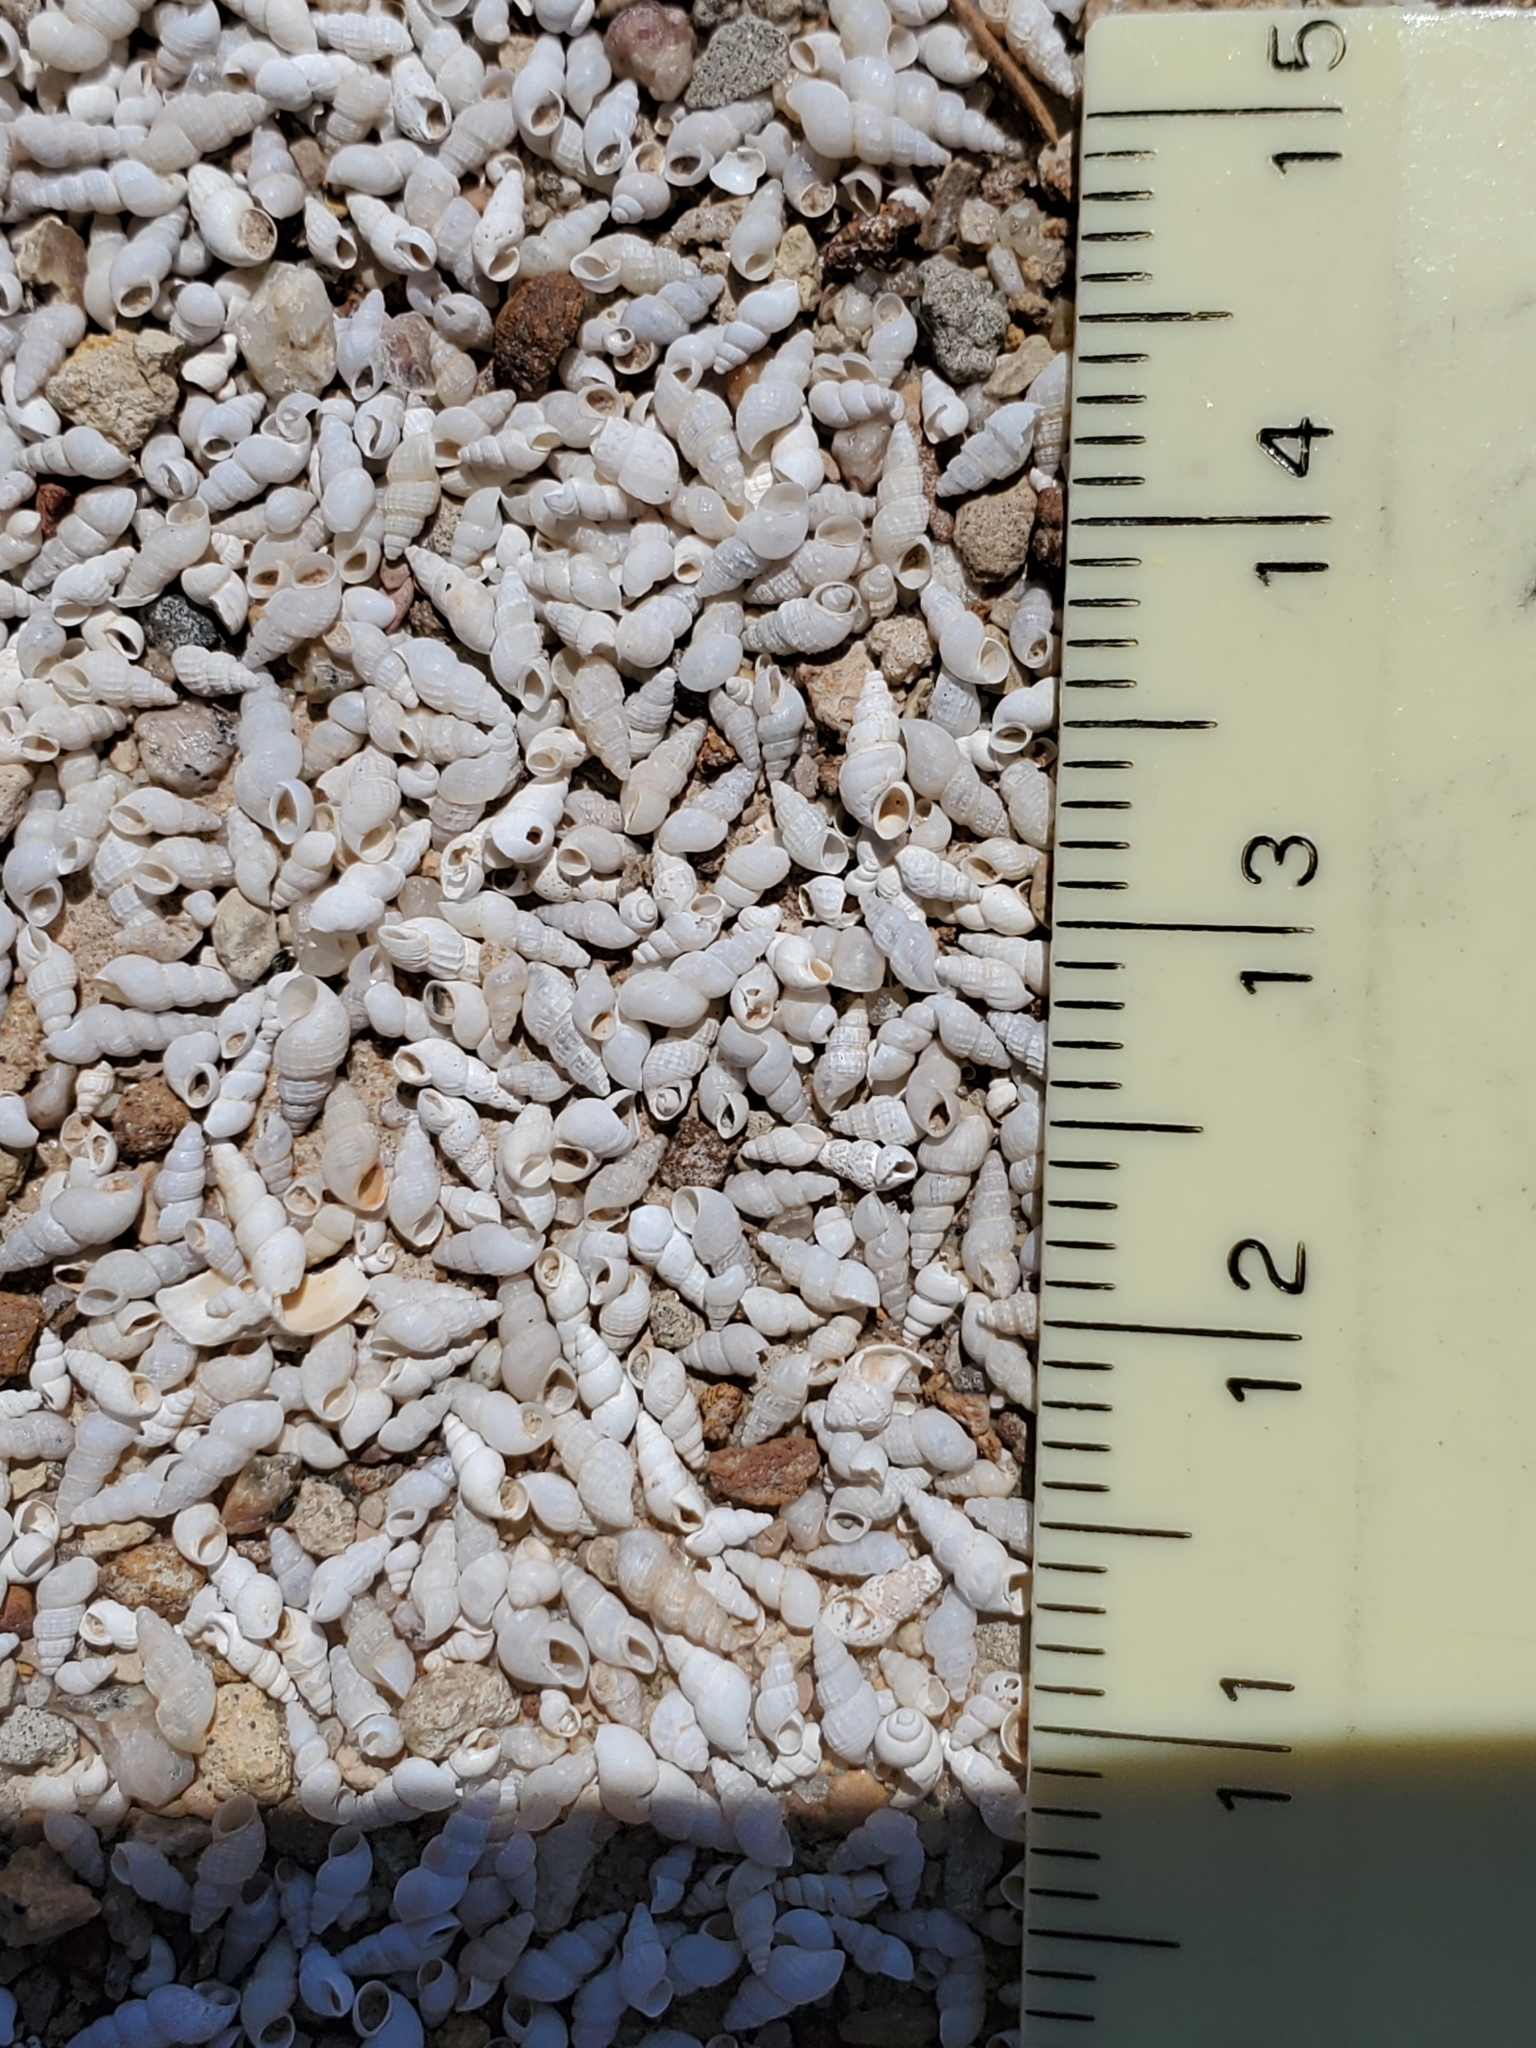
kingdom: Animalia
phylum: Mollusca
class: Gastropoda
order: Littorinimorpha
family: Cochliopidae
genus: Tryonia
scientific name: Tryonia porrecta
